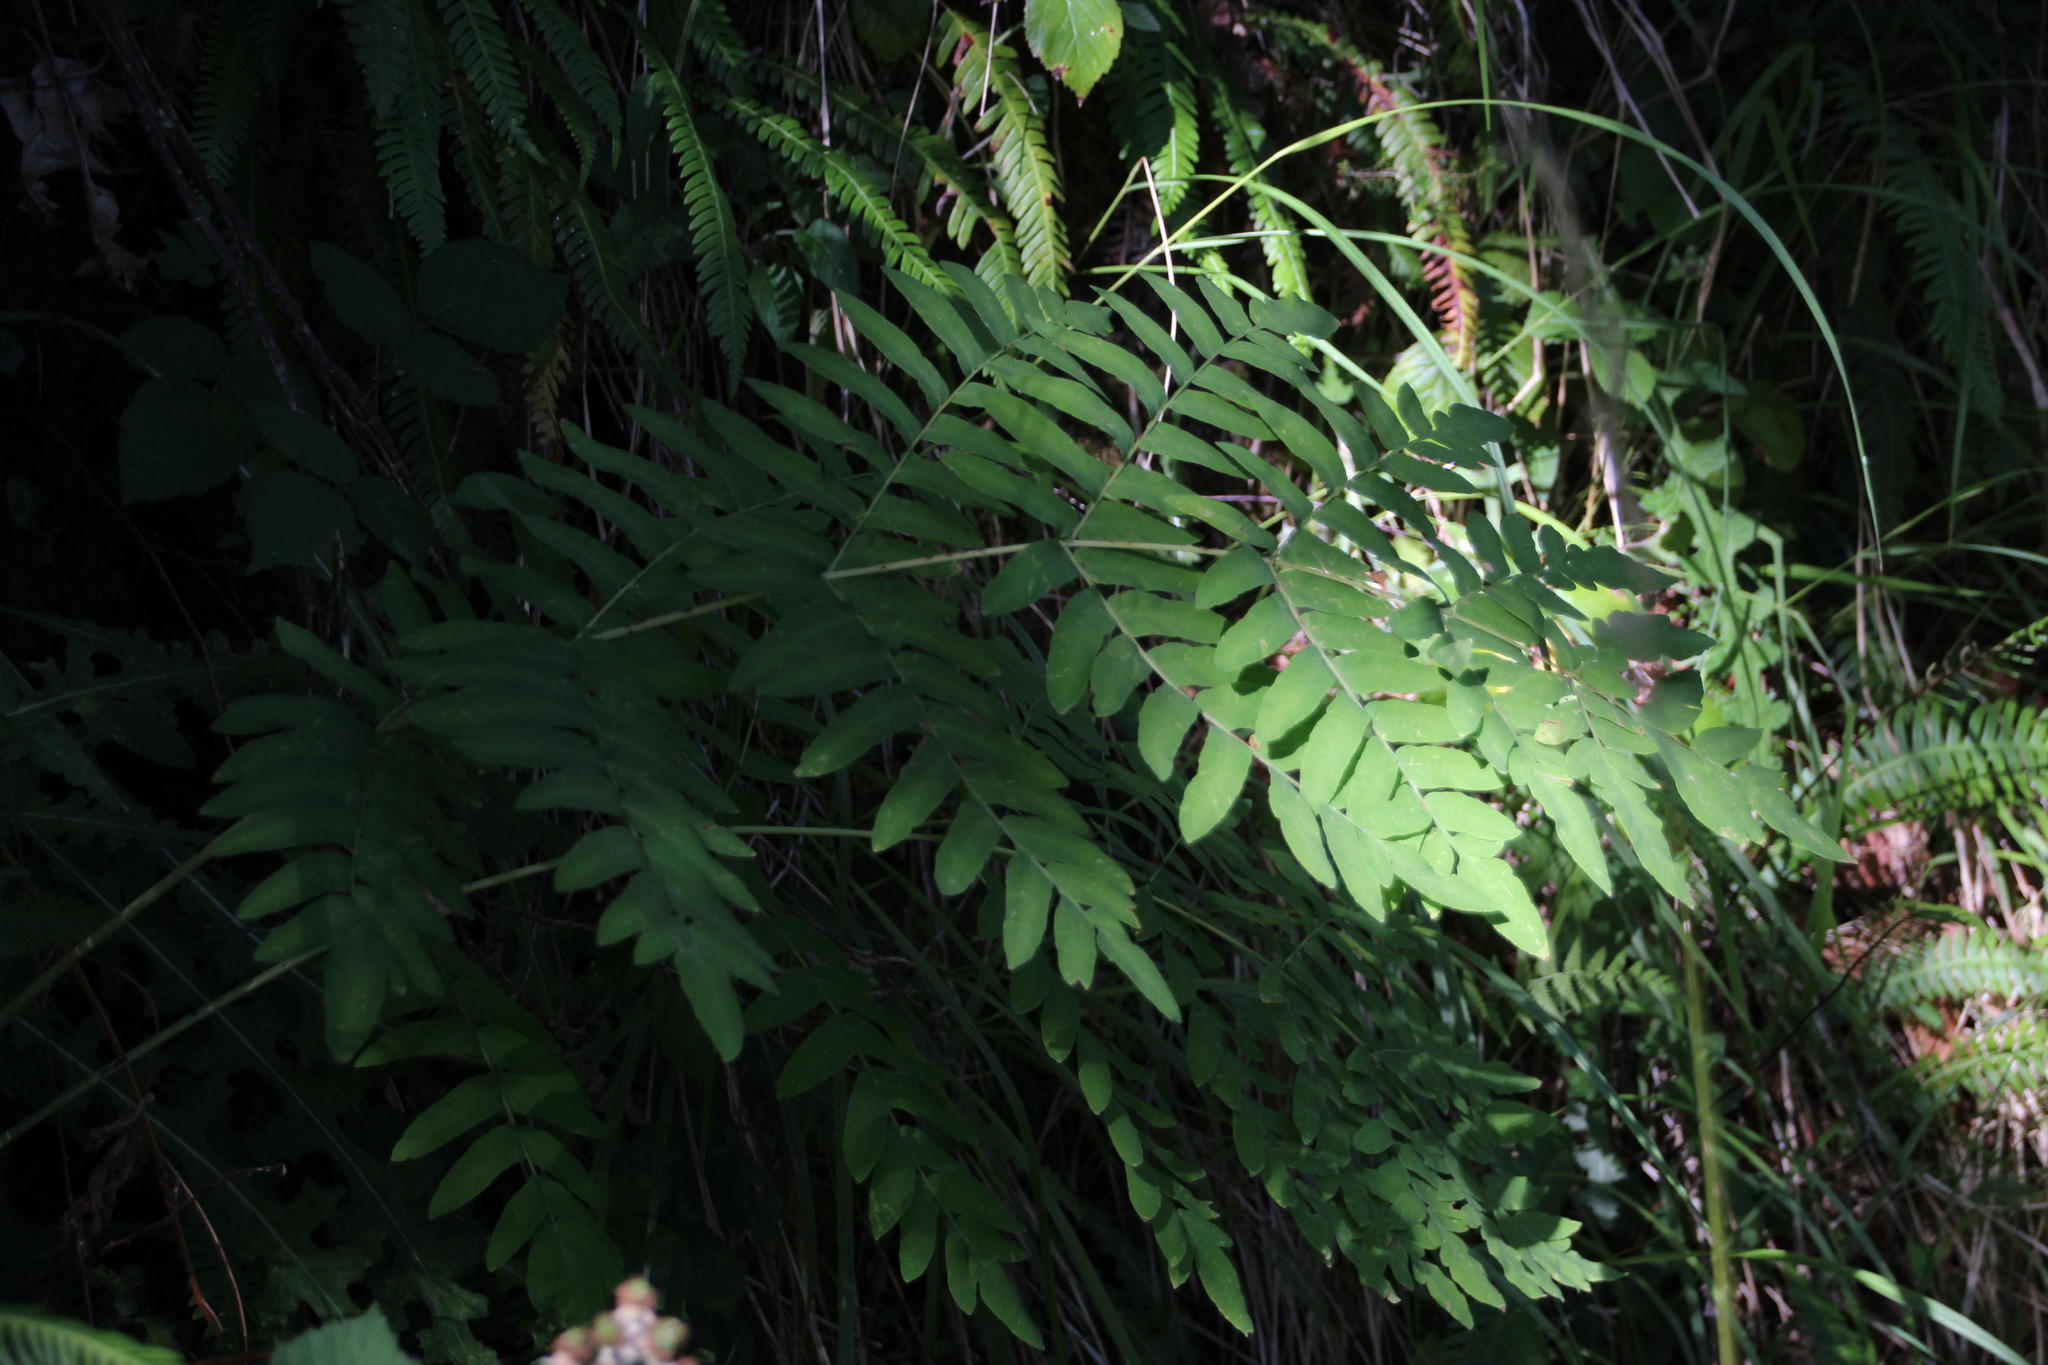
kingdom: Plantae
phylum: Tracheophyta
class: Polypodiopsida
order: Osmundales
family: Osmundaceae
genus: Osmunda
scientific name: Osmunda regalis
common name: Royal fern
